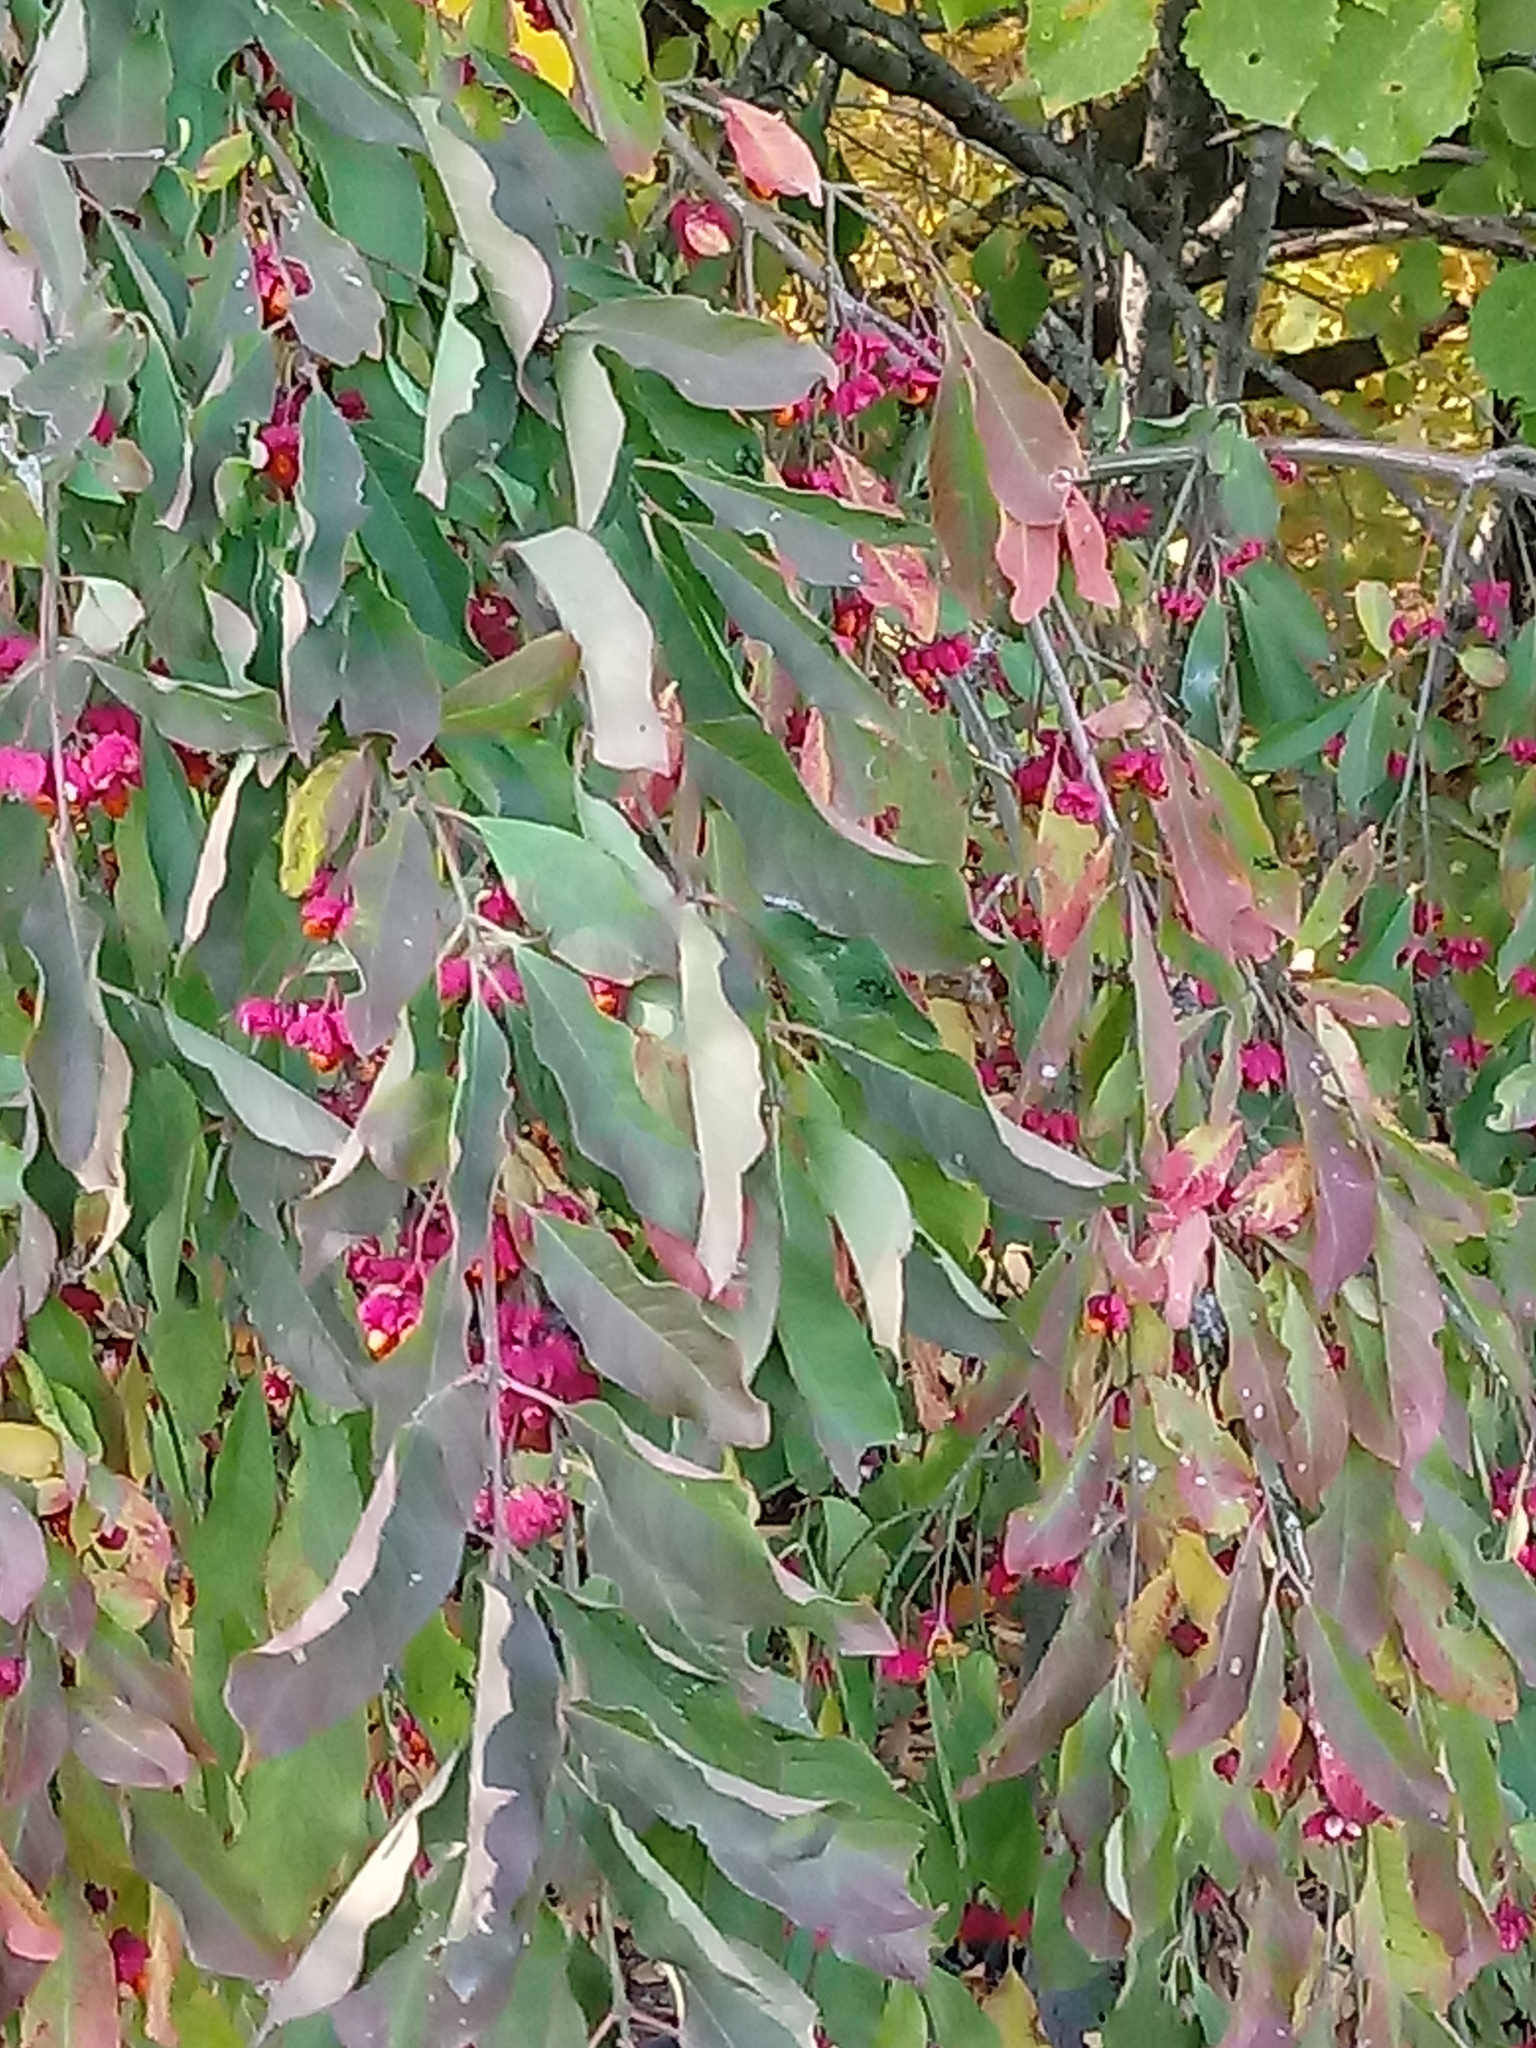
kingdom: Plantae
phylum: Tracheophyta
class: Magnoliopsida
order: Celastrales
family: Celastraceae
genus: Euonymus
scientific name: Euonymus europaeus
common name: Spindle
